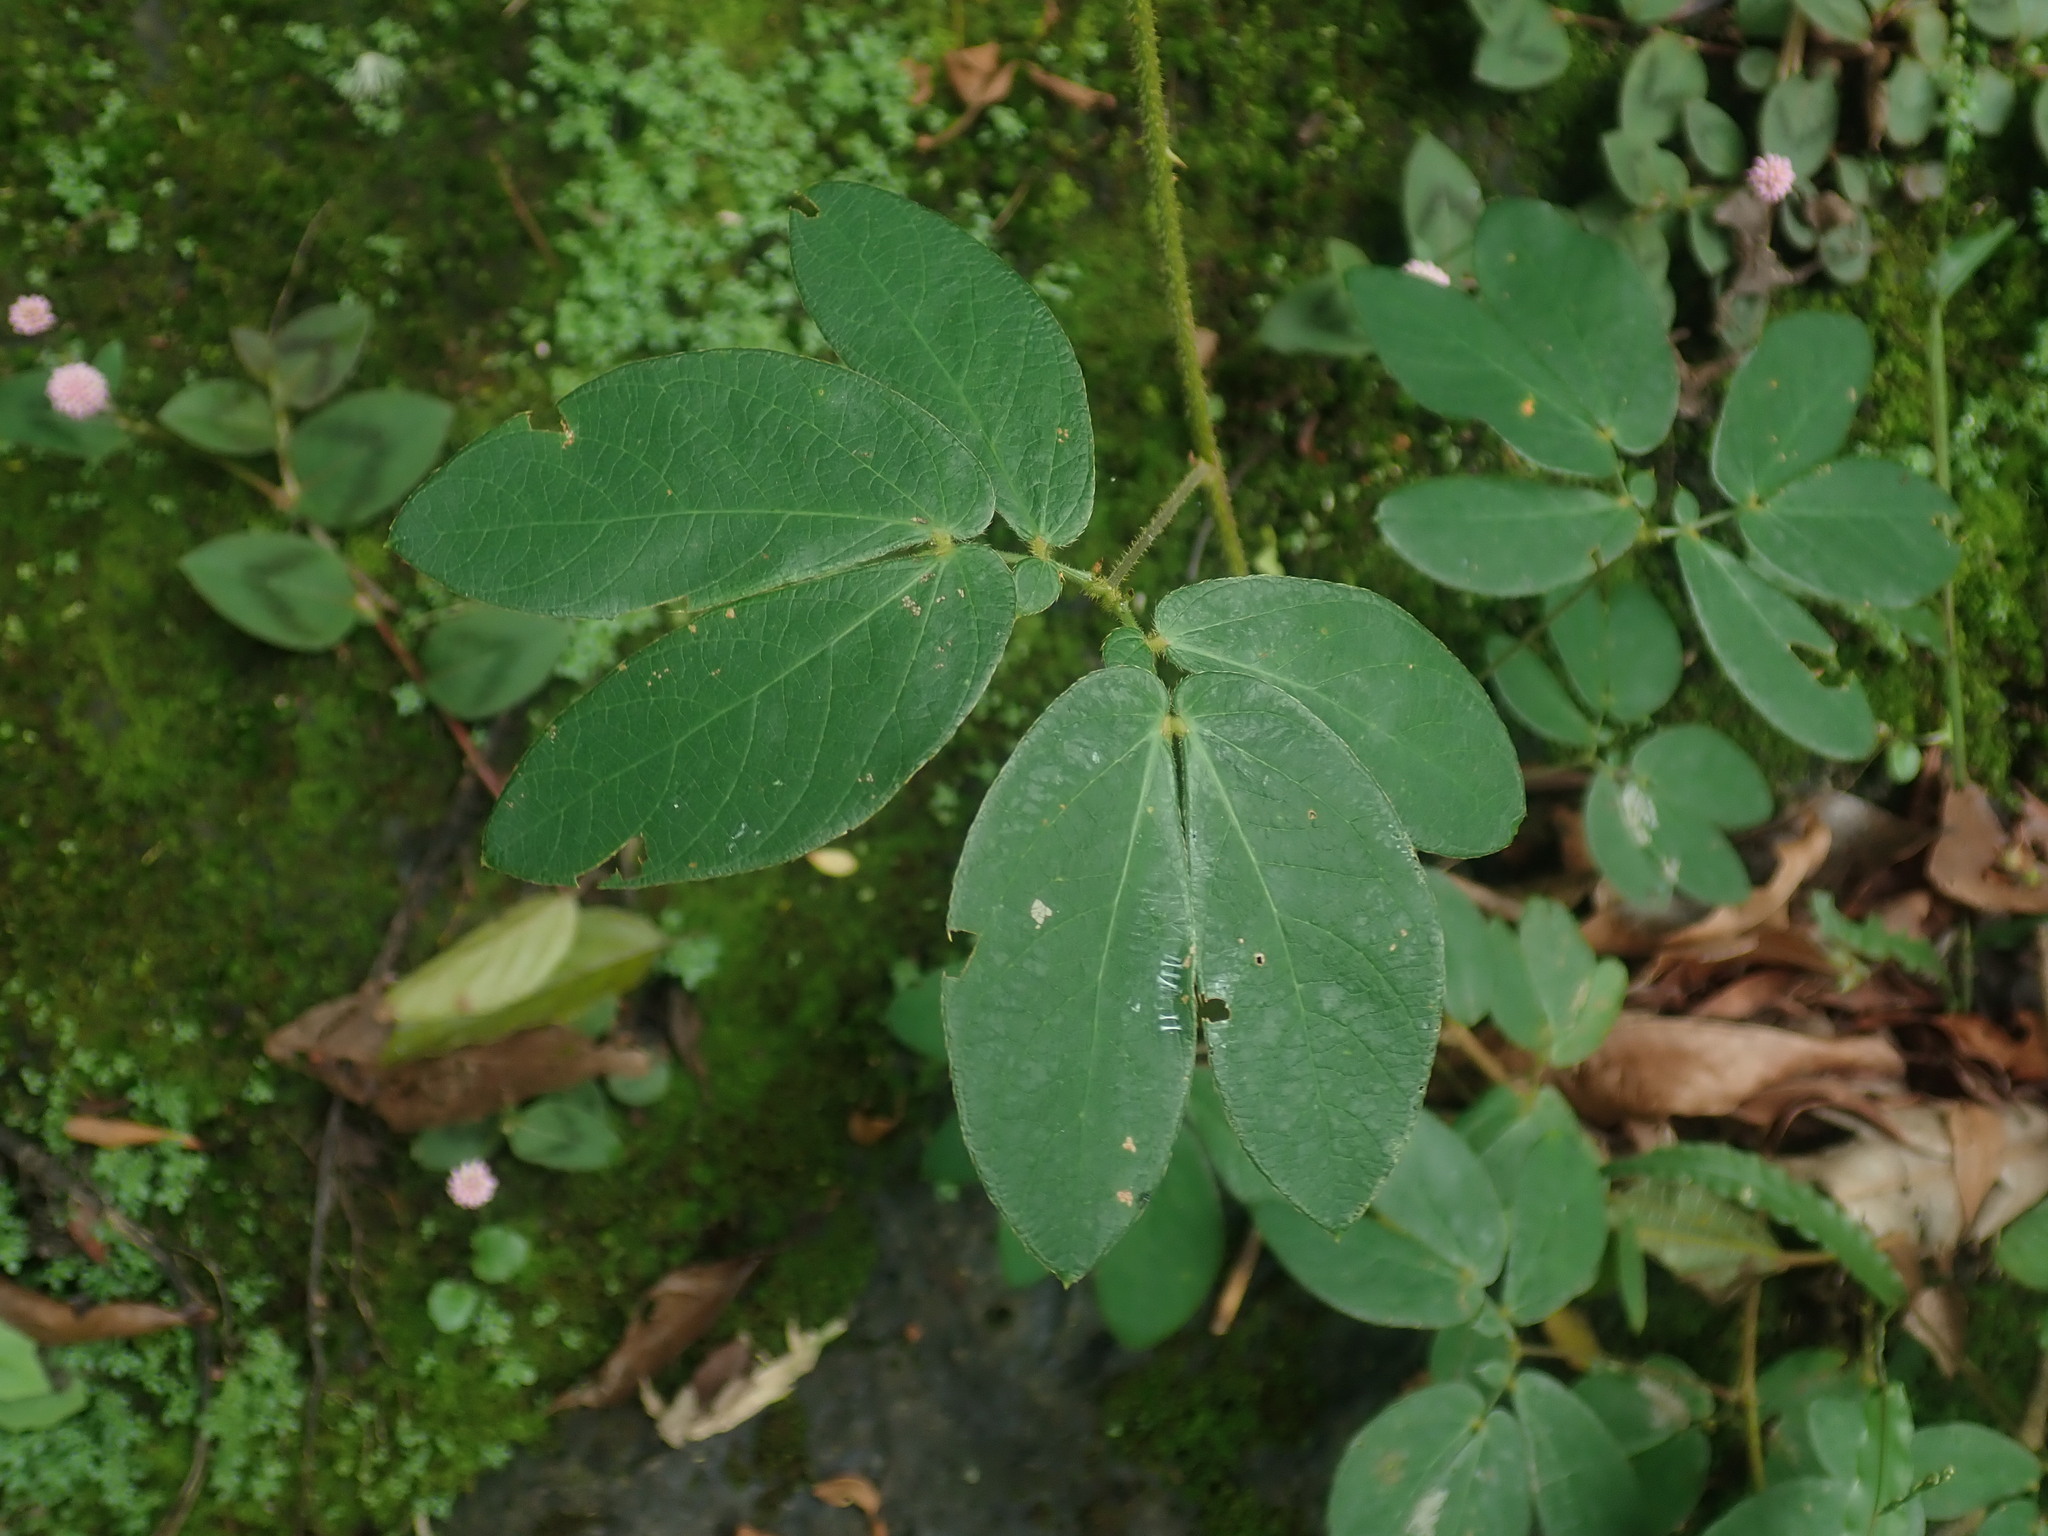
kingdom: Plantae
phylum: Tracheophyta
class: Magnoliopsida
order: Fabales
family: Fabaceae
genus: Mimosa
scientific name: Mimosa albida
